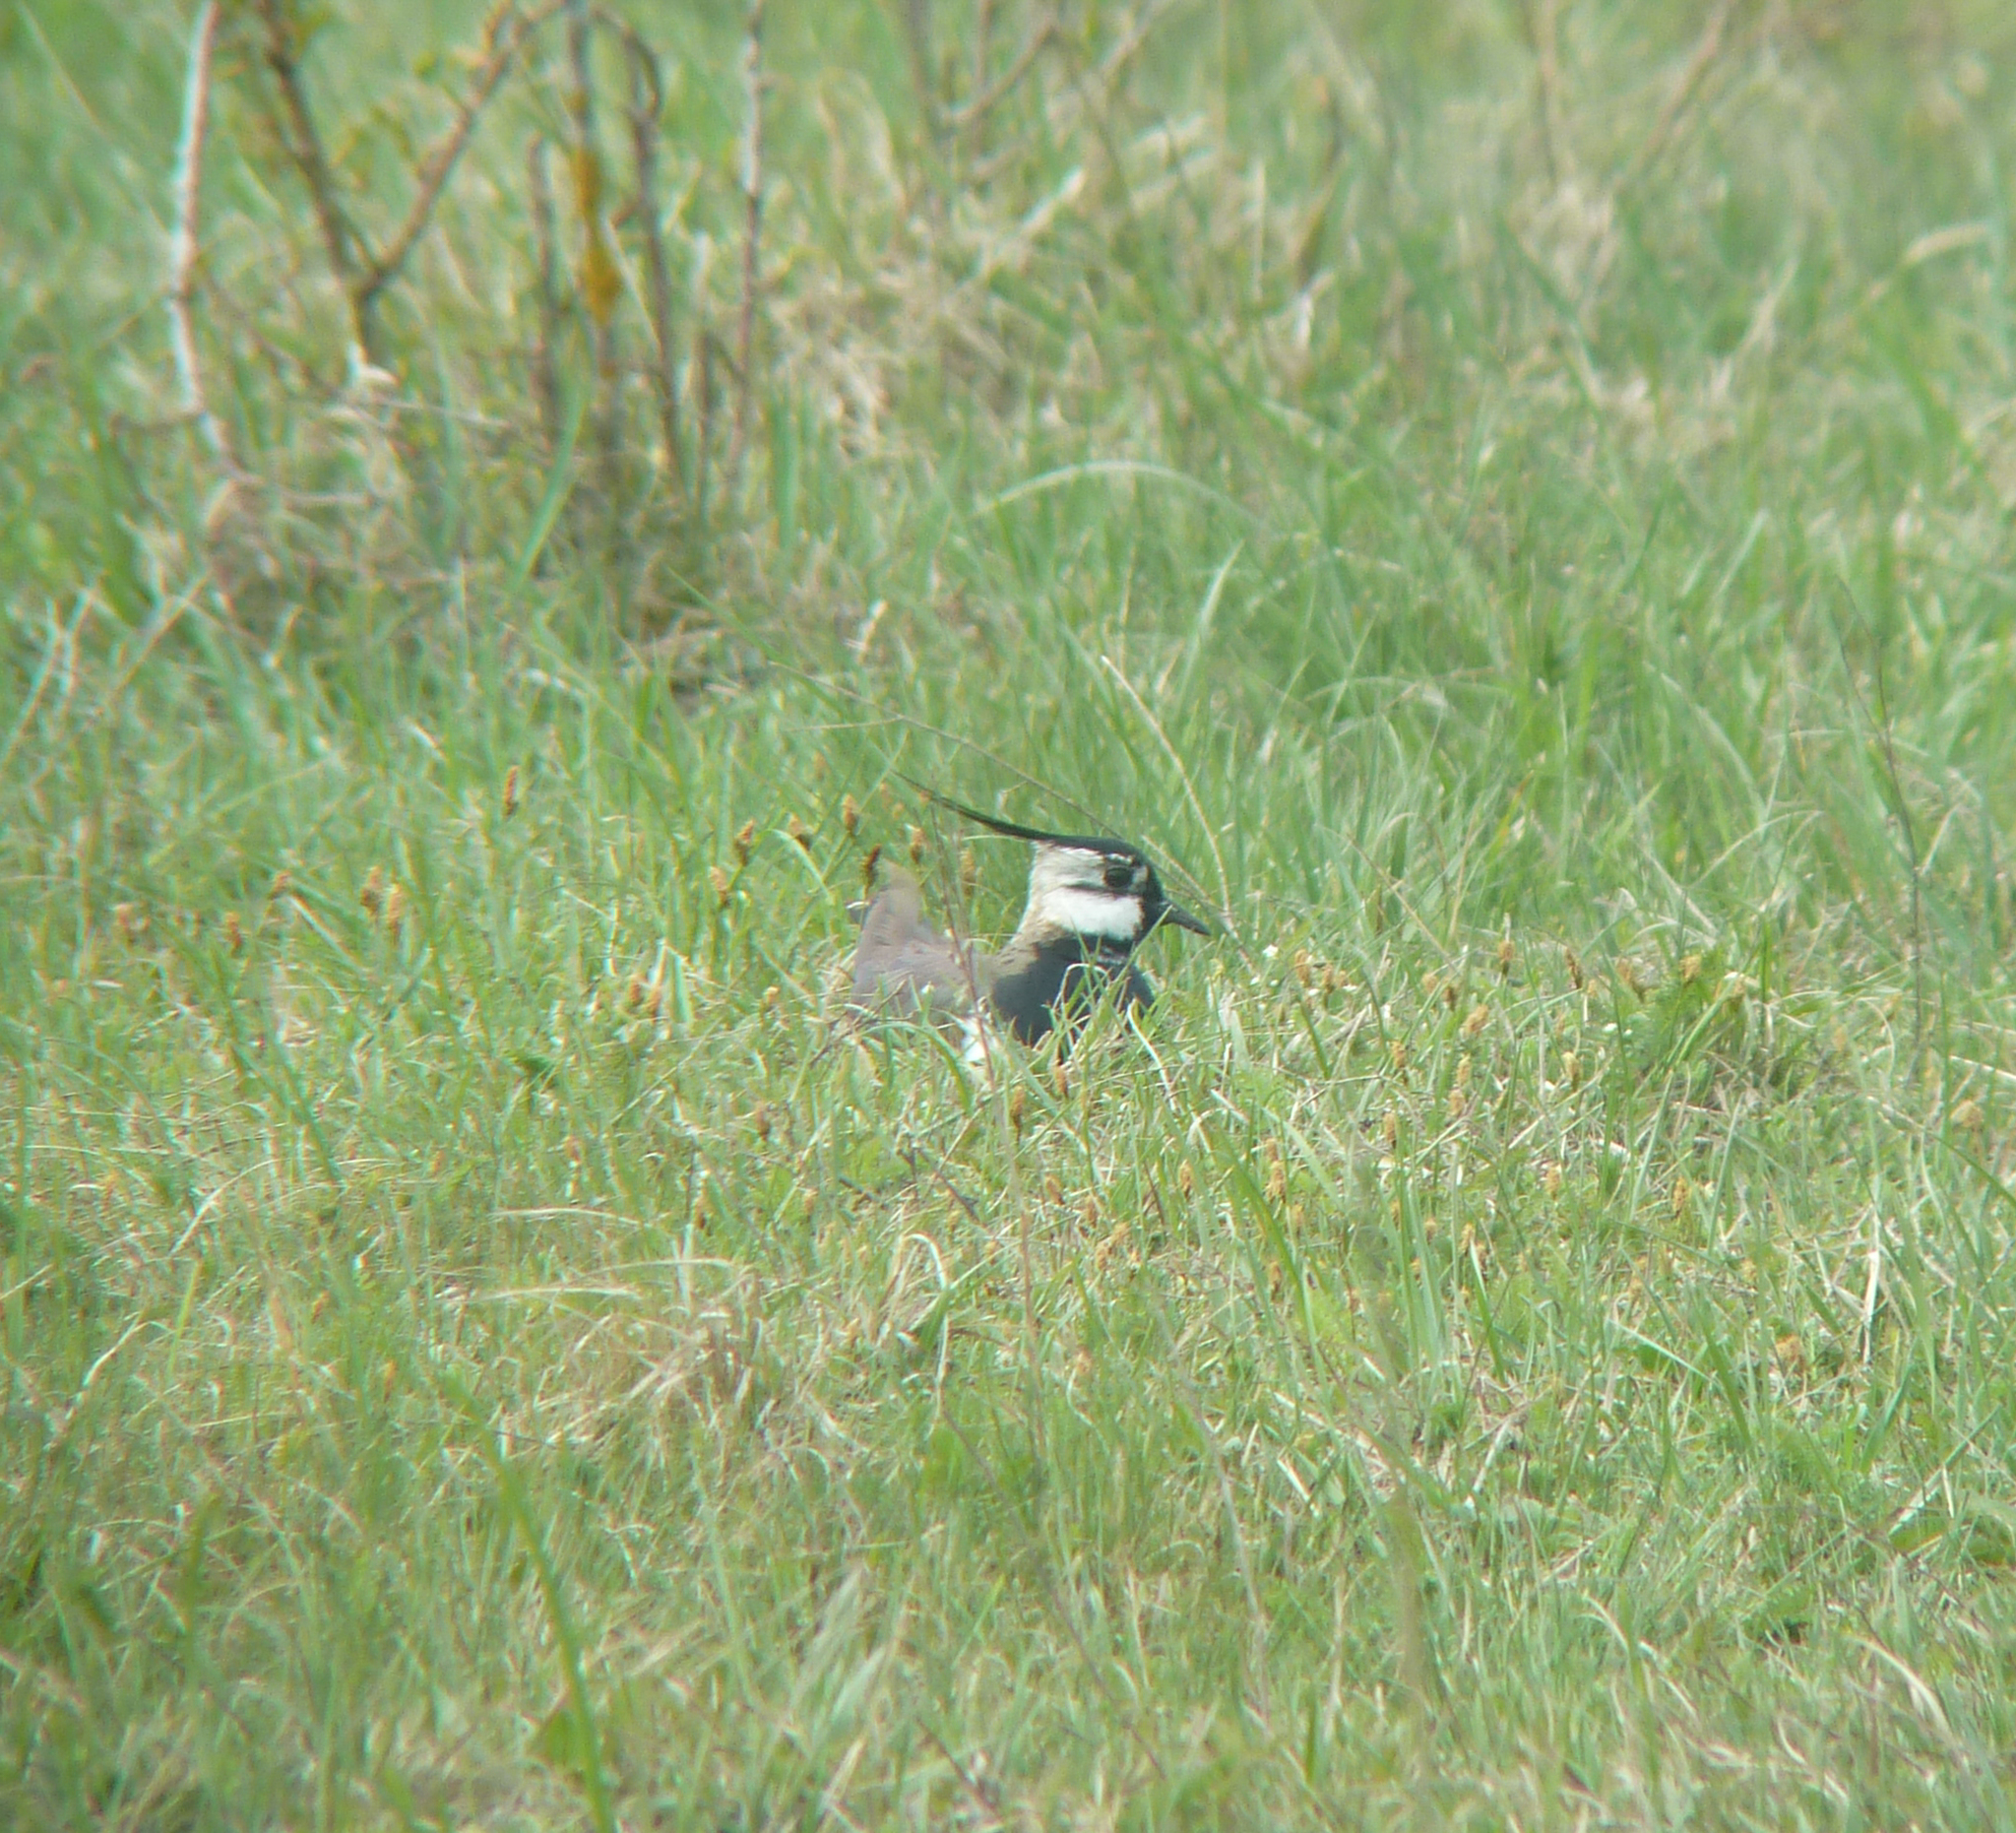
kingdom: Animalia
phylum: Chordata
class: Aves
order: Charadriiformes
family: Charadriidae
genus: Vanellus
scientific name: Vanellus vanellus
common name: Northern lapwing
